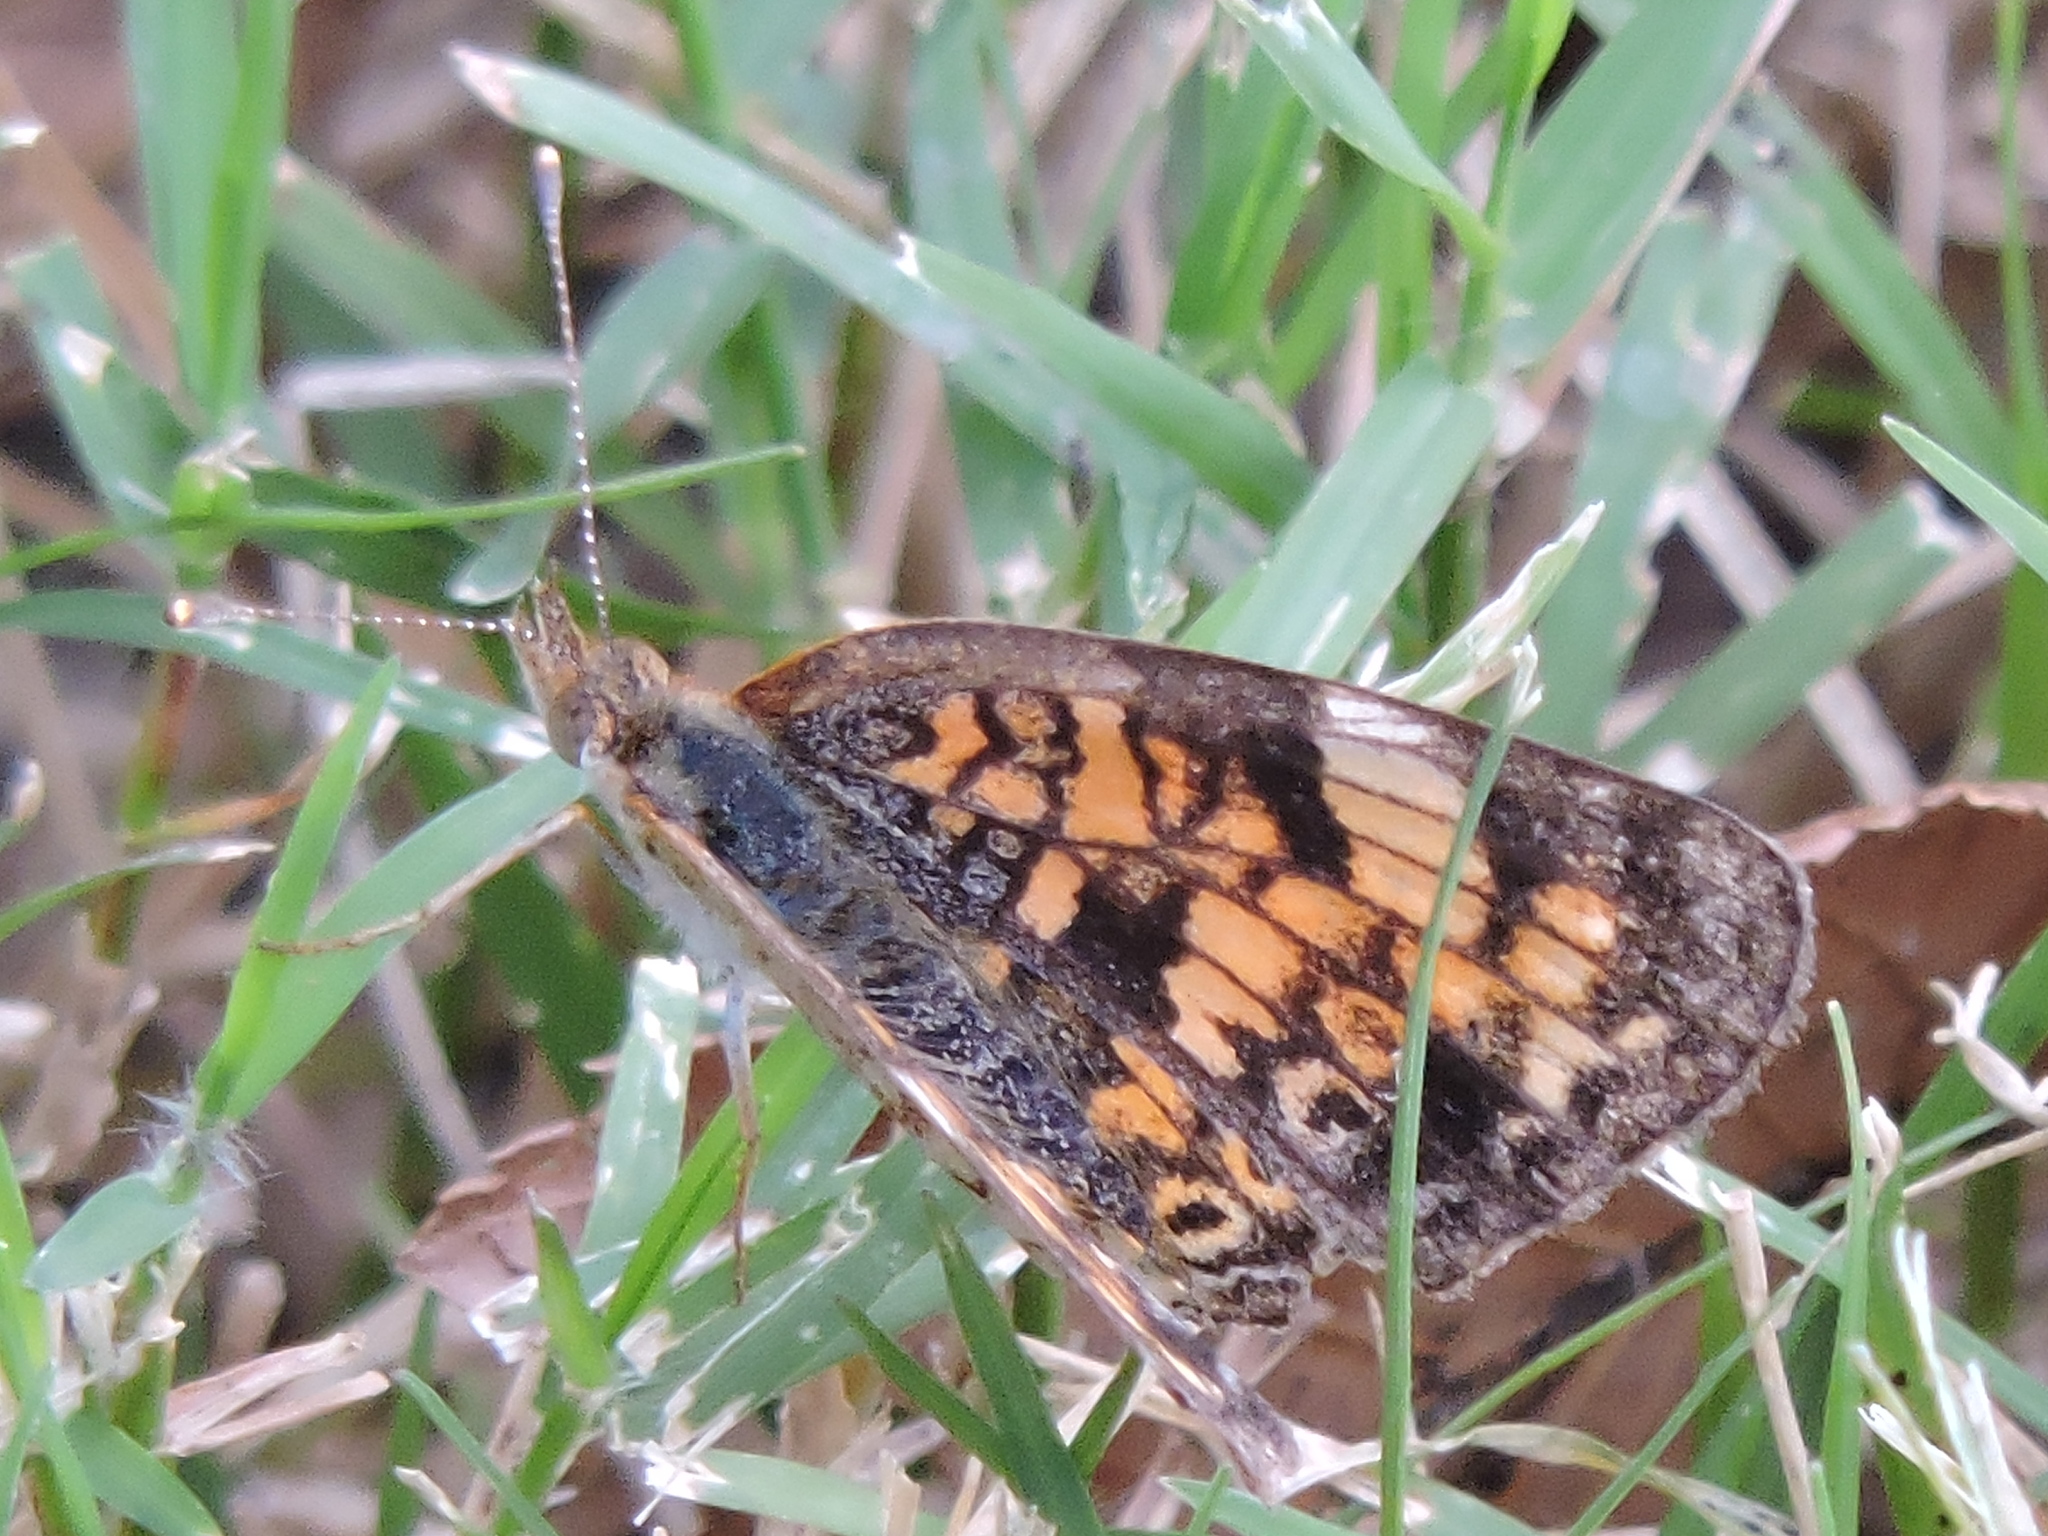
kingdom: Animalia
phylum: Arthropoda
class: Insecta
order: Lepidoptera
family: Nymphalidae
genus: Phyciodes
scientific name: Phyciodes tharos
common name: Pearl crescent
